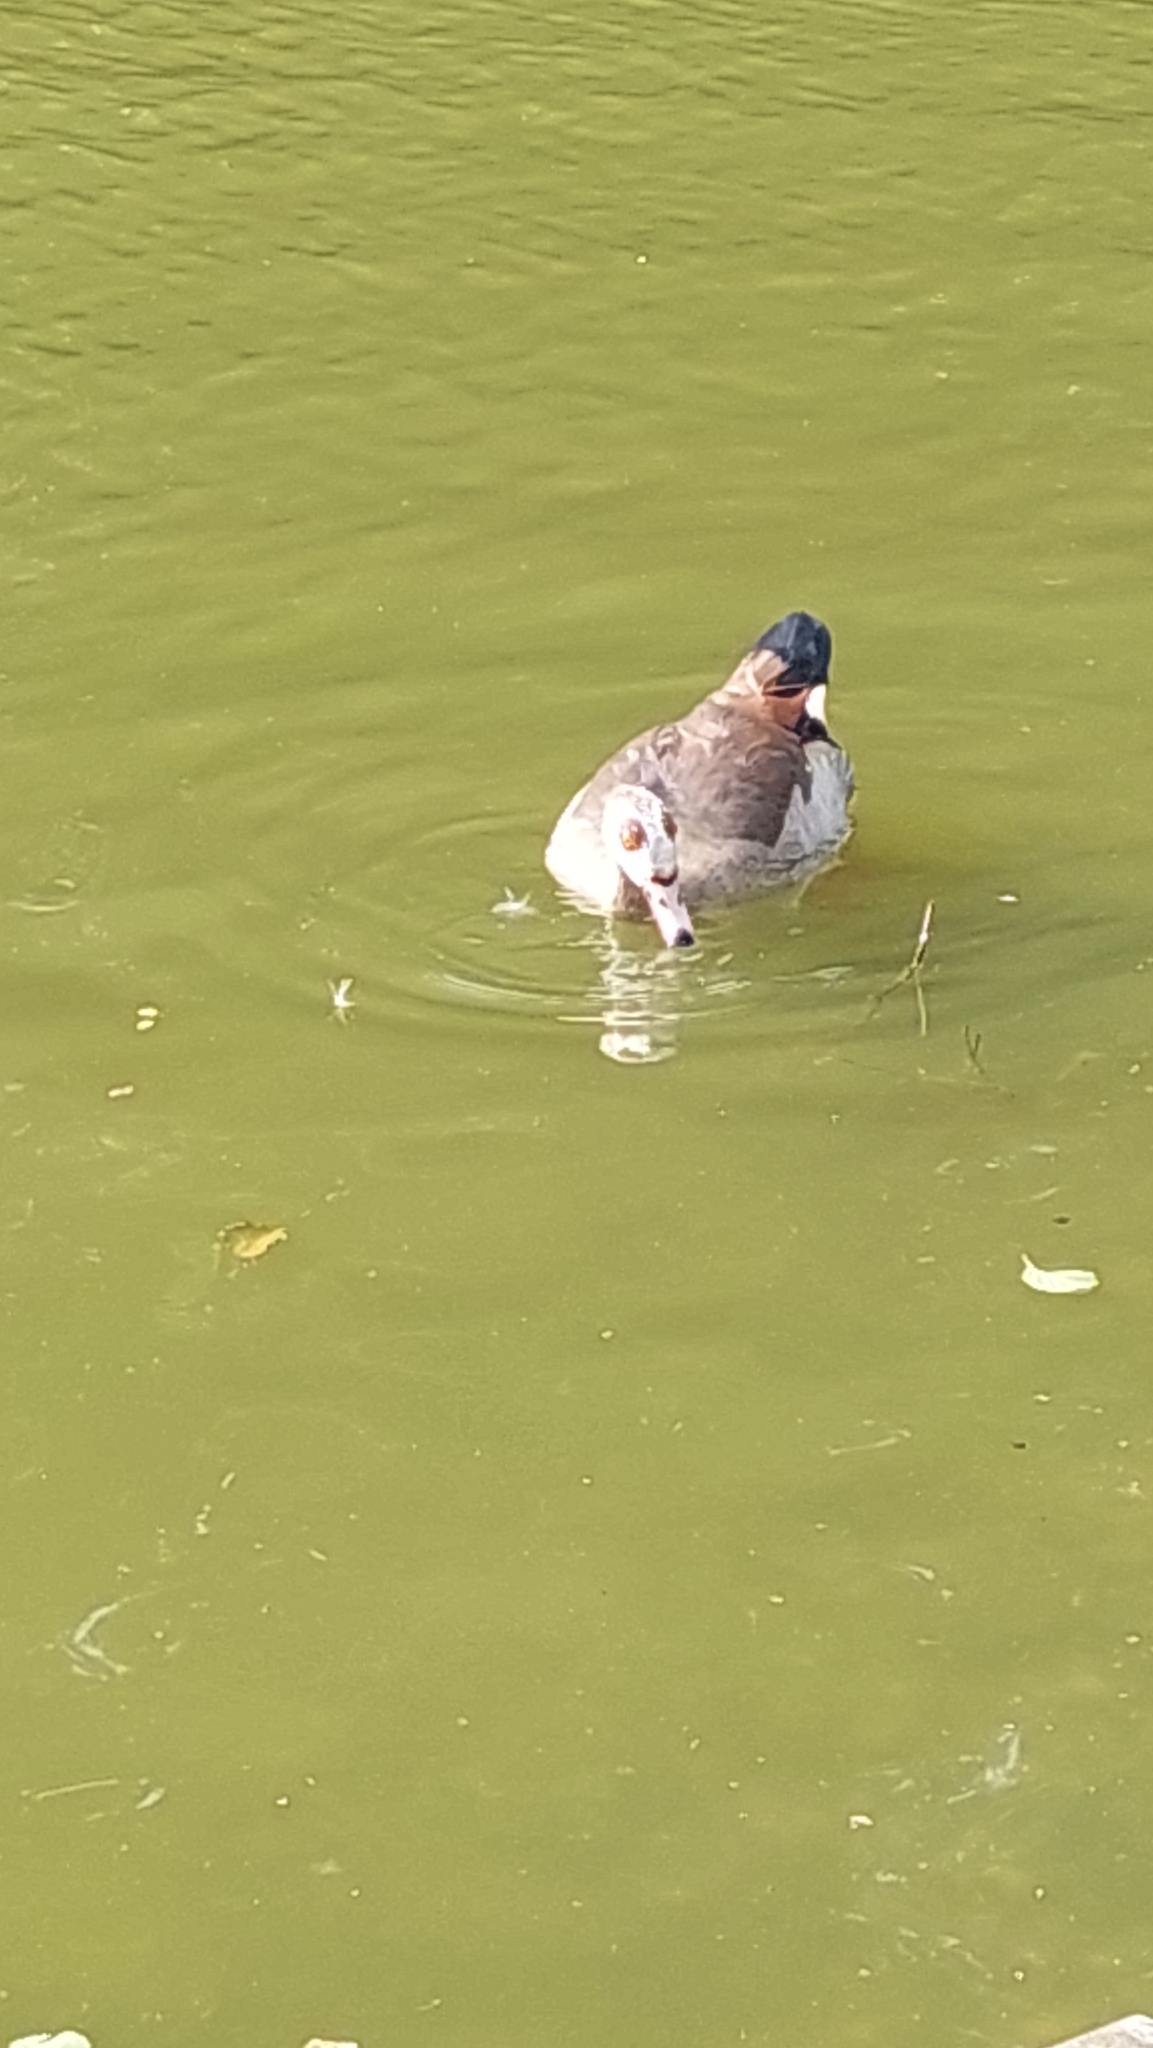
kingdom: Animalia
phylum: Chordata
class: Aves
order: Anseriformes
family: Anatidae
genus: Alopochen
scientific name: Alopochen aegyptiaca
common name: Egyptian goose
